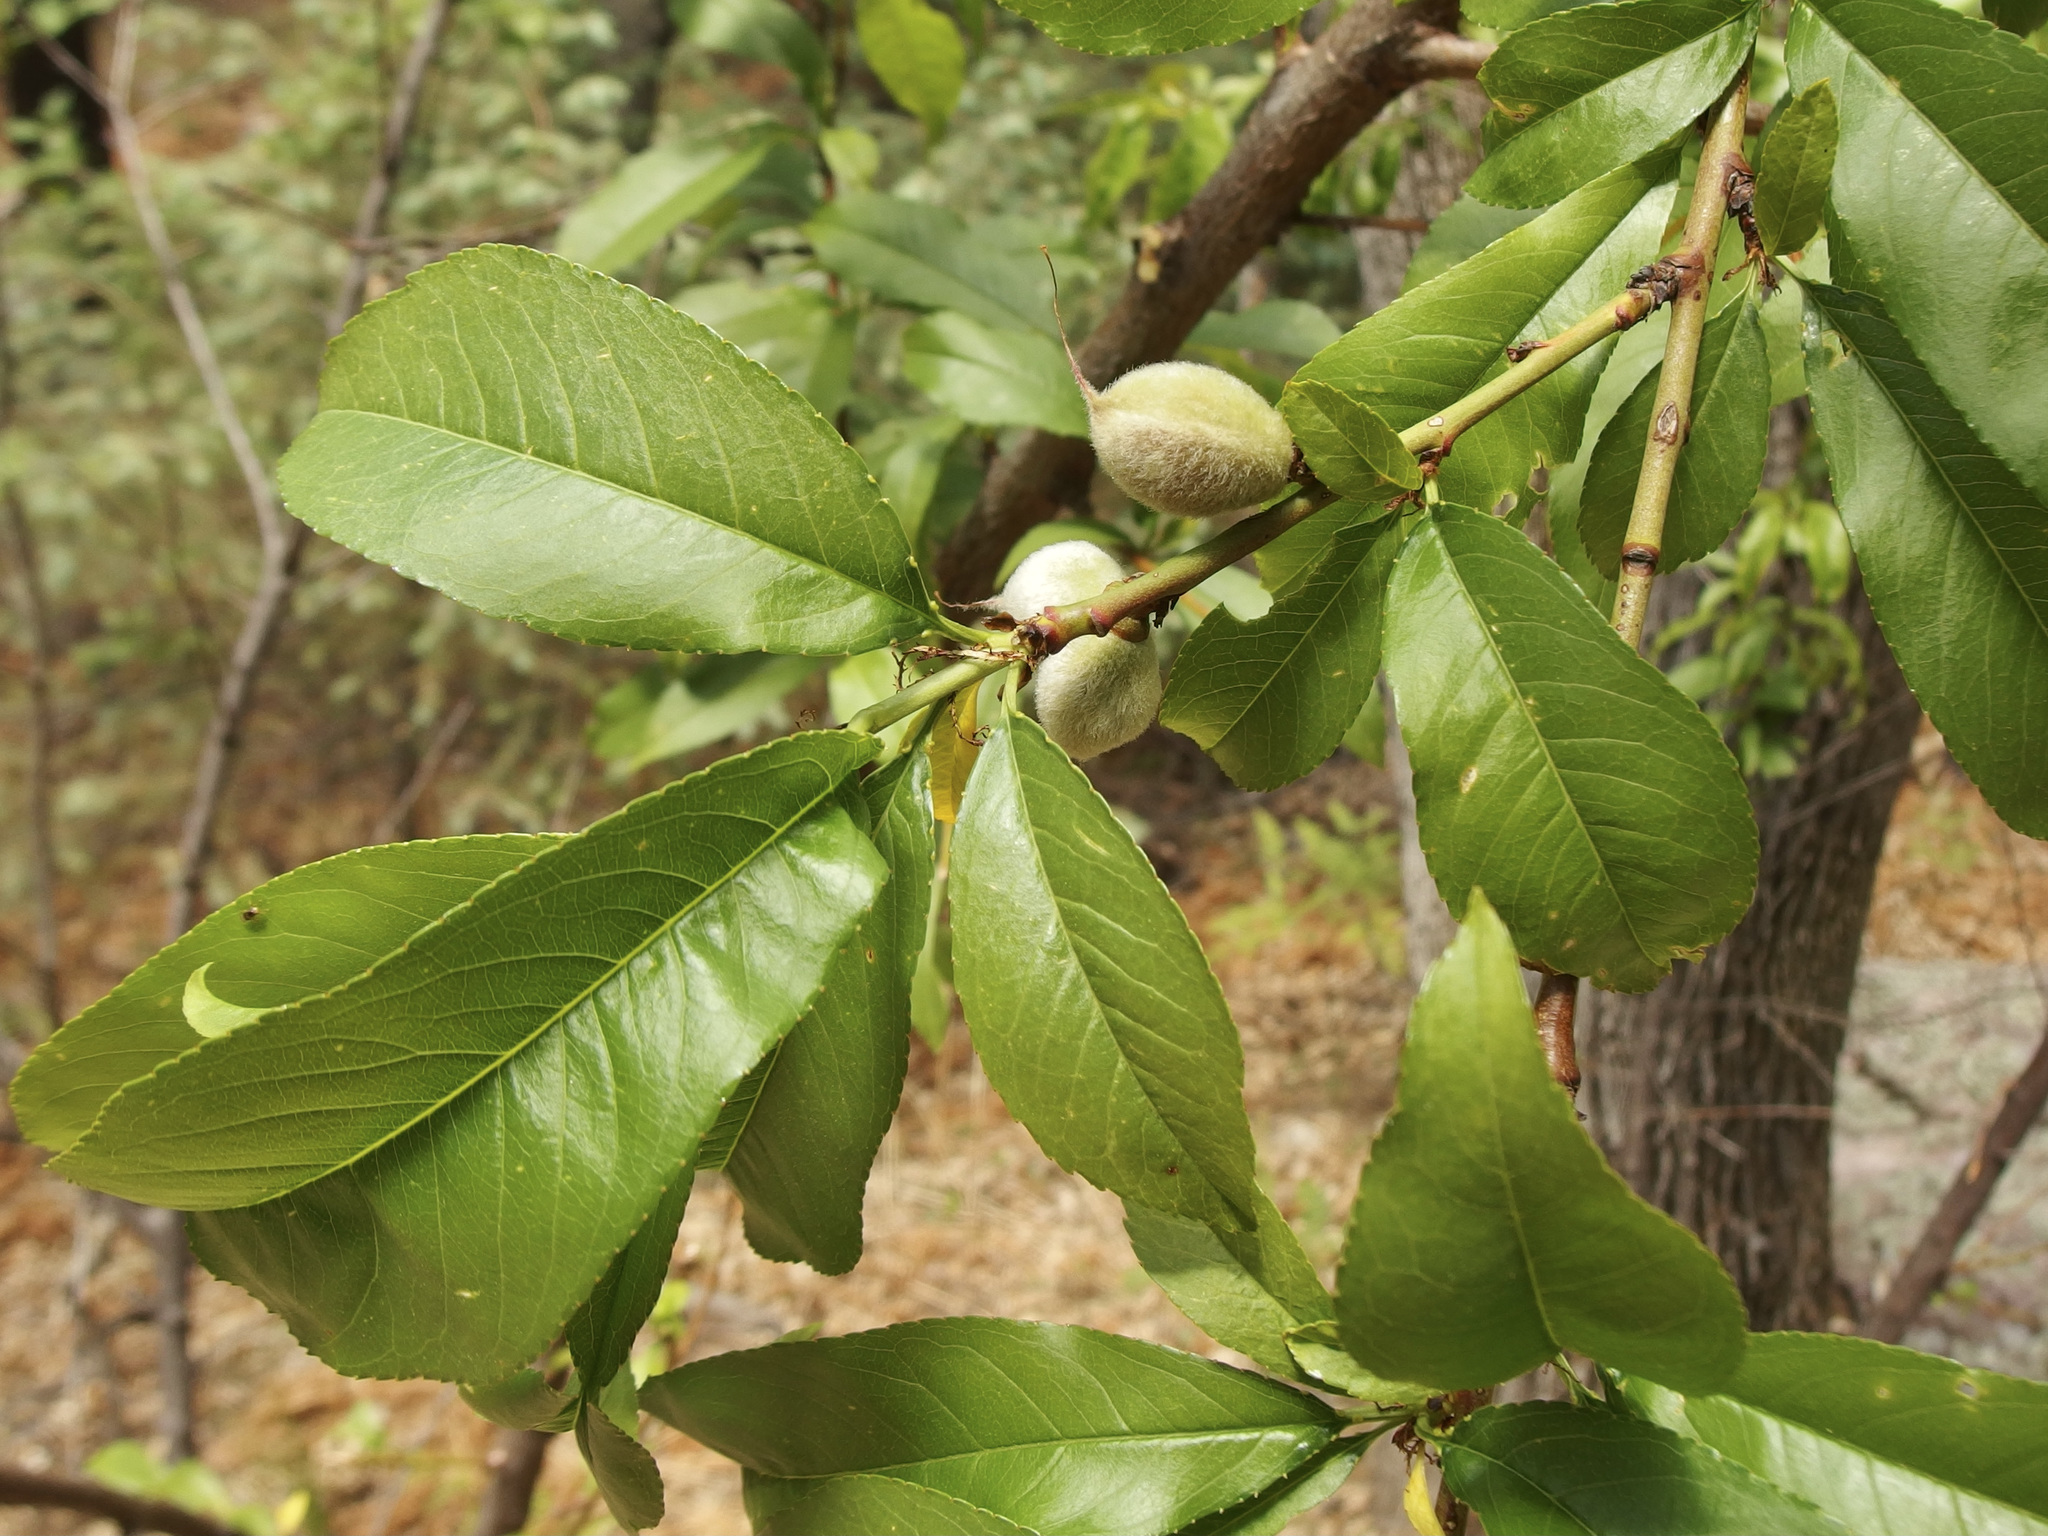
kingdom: Plantae
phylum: Tracheophyta
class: Magnoliopsida
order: Rosales
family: Rosaceae
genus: Prunus
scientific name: Prunus persica
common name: Peach
